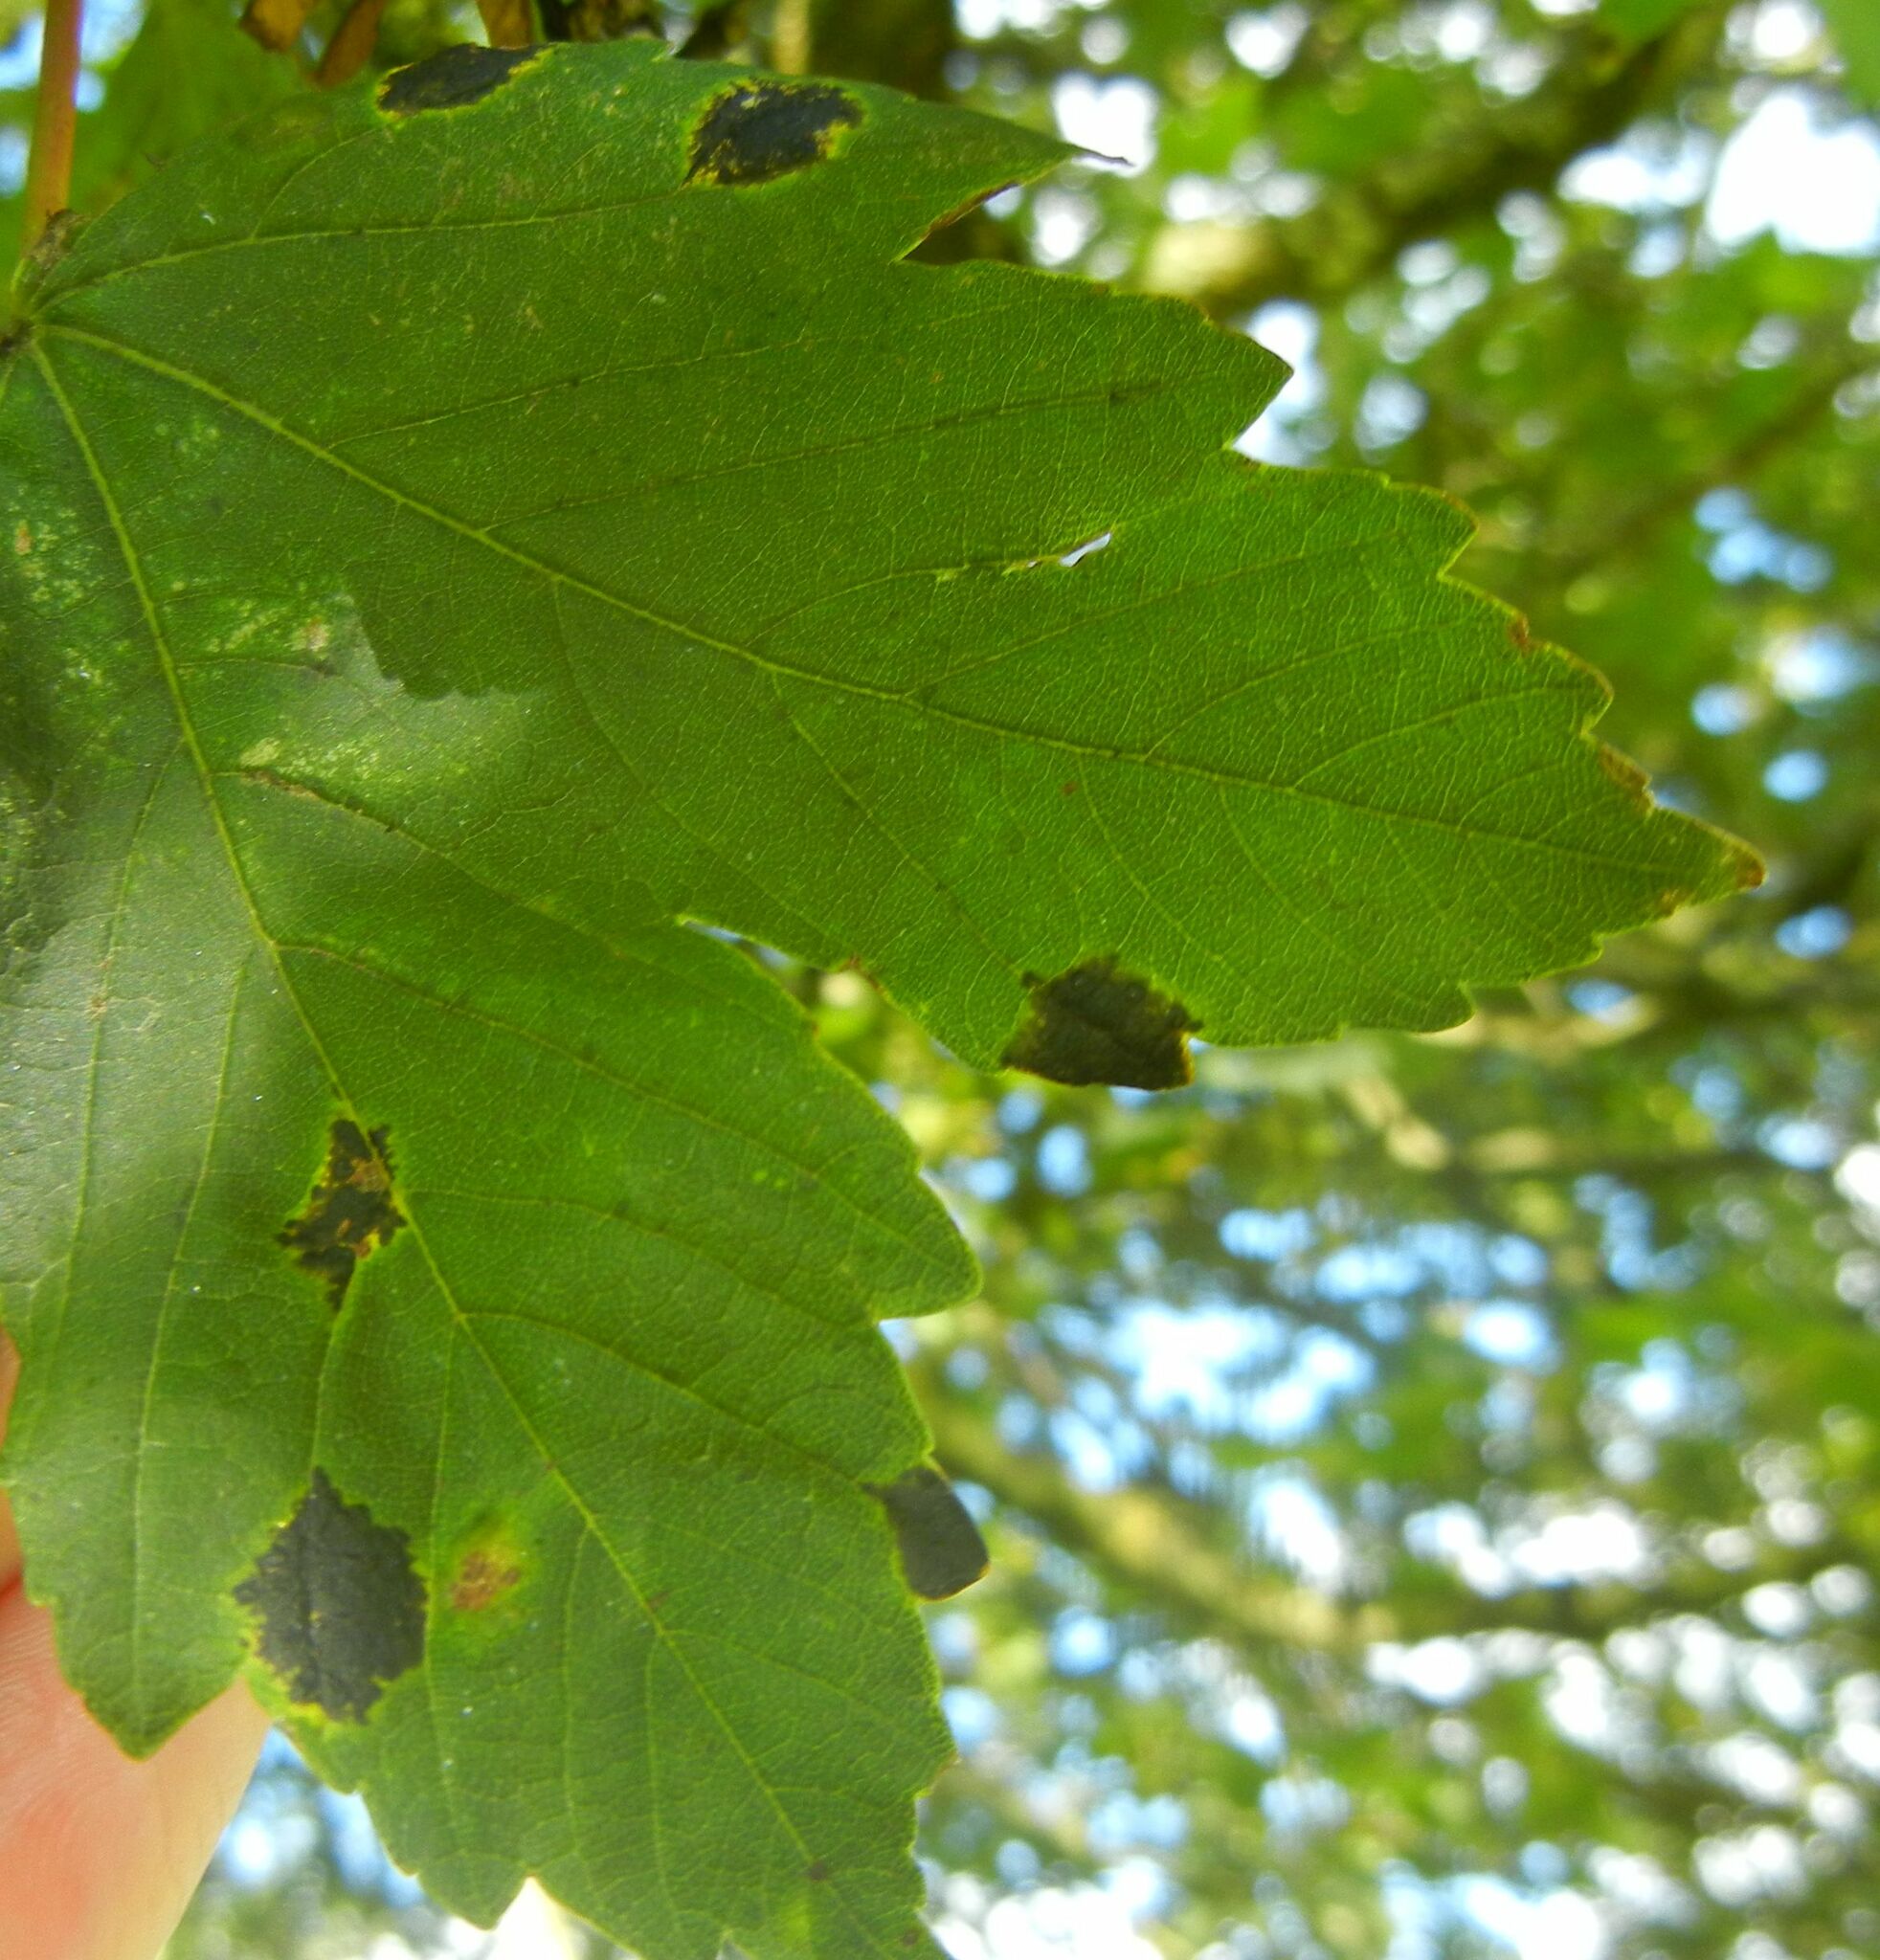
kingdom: Fungi
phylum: Ascomycota
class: Leotiomycetes
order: Rhytismatales
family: Rhytismataceae
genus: Rhytisma
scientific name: Rhytisma acerinum
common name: European tar spot
